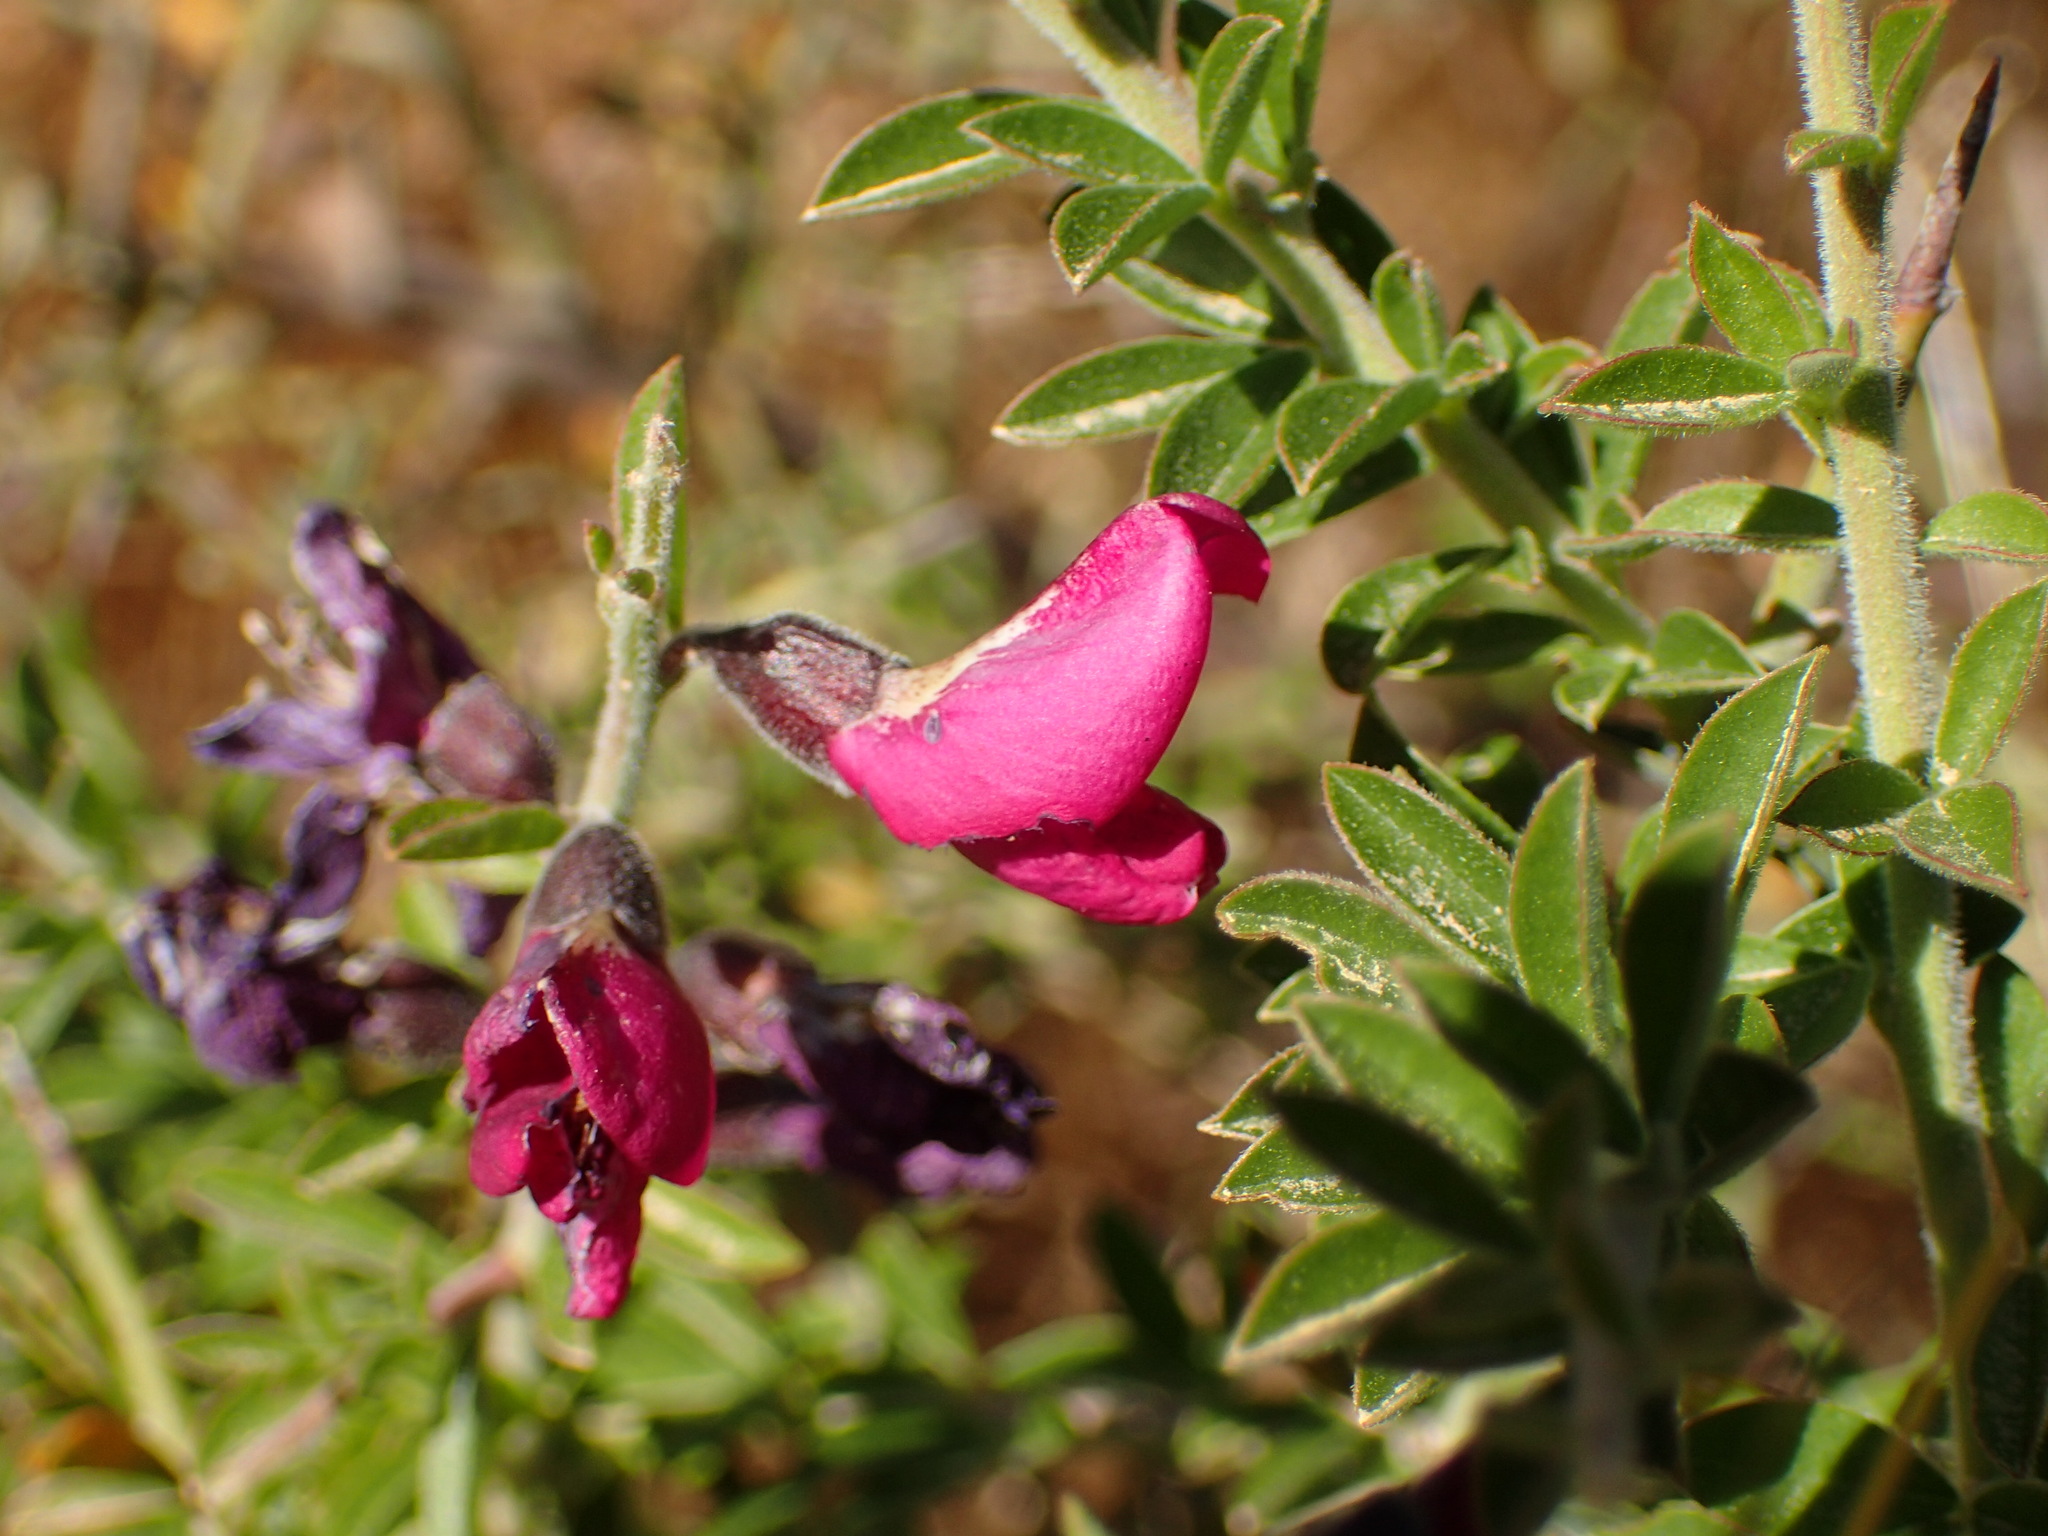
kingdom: Plantae
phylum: Tracheophyta
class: Magnoliopsida
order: Fabales
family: Fabaceae
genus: Pickeringia
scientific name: Pickeringia montana
